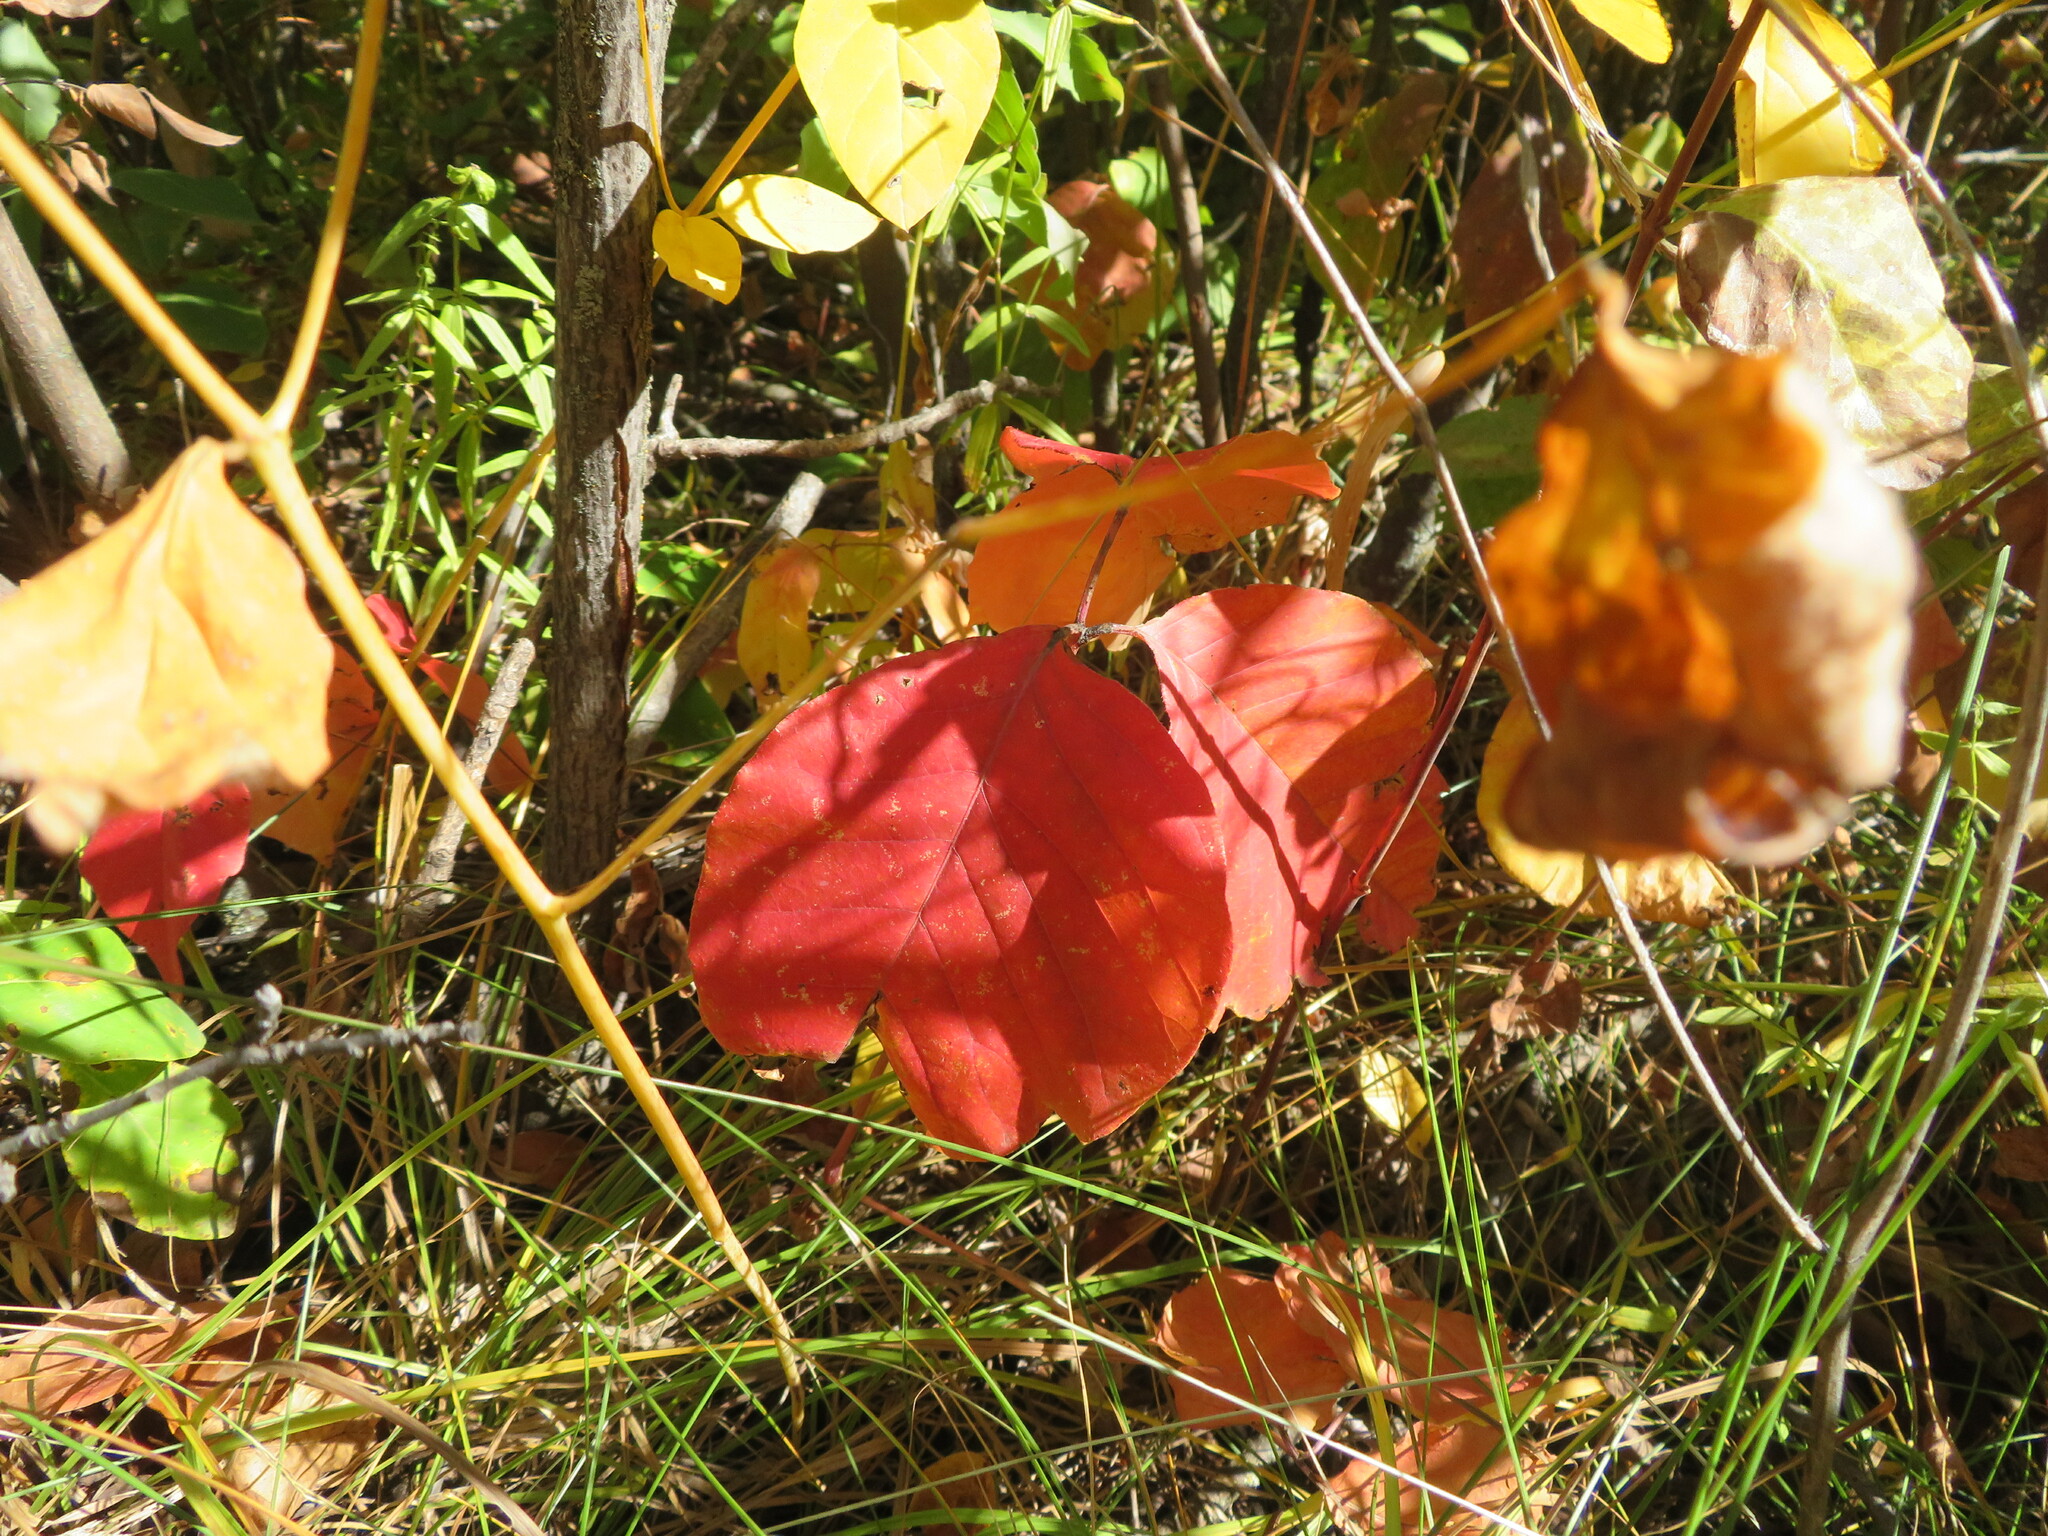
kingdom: Plantae
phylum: Tracheophyta
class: Magnoliopsida
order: Sapindales
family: Anacardiaceae
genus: Toxicodendron
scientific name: Toxicodendron rydbergii
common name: Rydberg's poison-ivy
